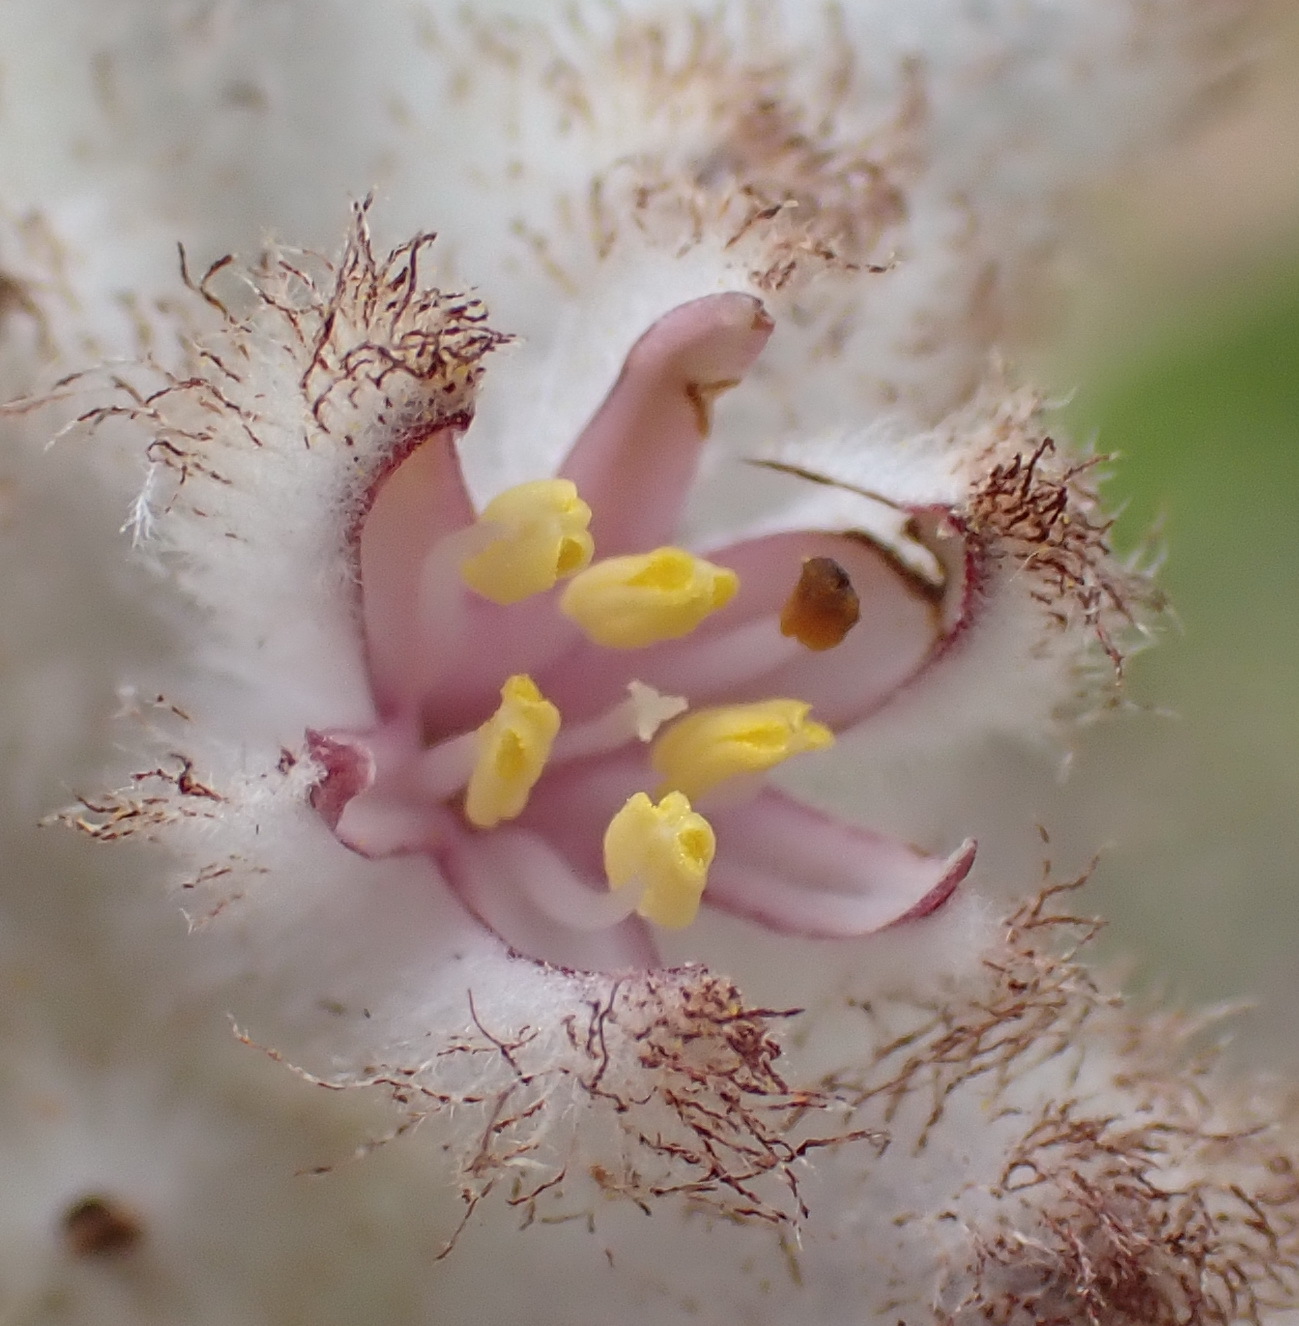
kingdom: Plantae
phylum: Tracheophyta
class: Liliopsida
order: Asparagales
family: Lanariaceae
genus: Lanaria
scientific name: Lanaria lanata
